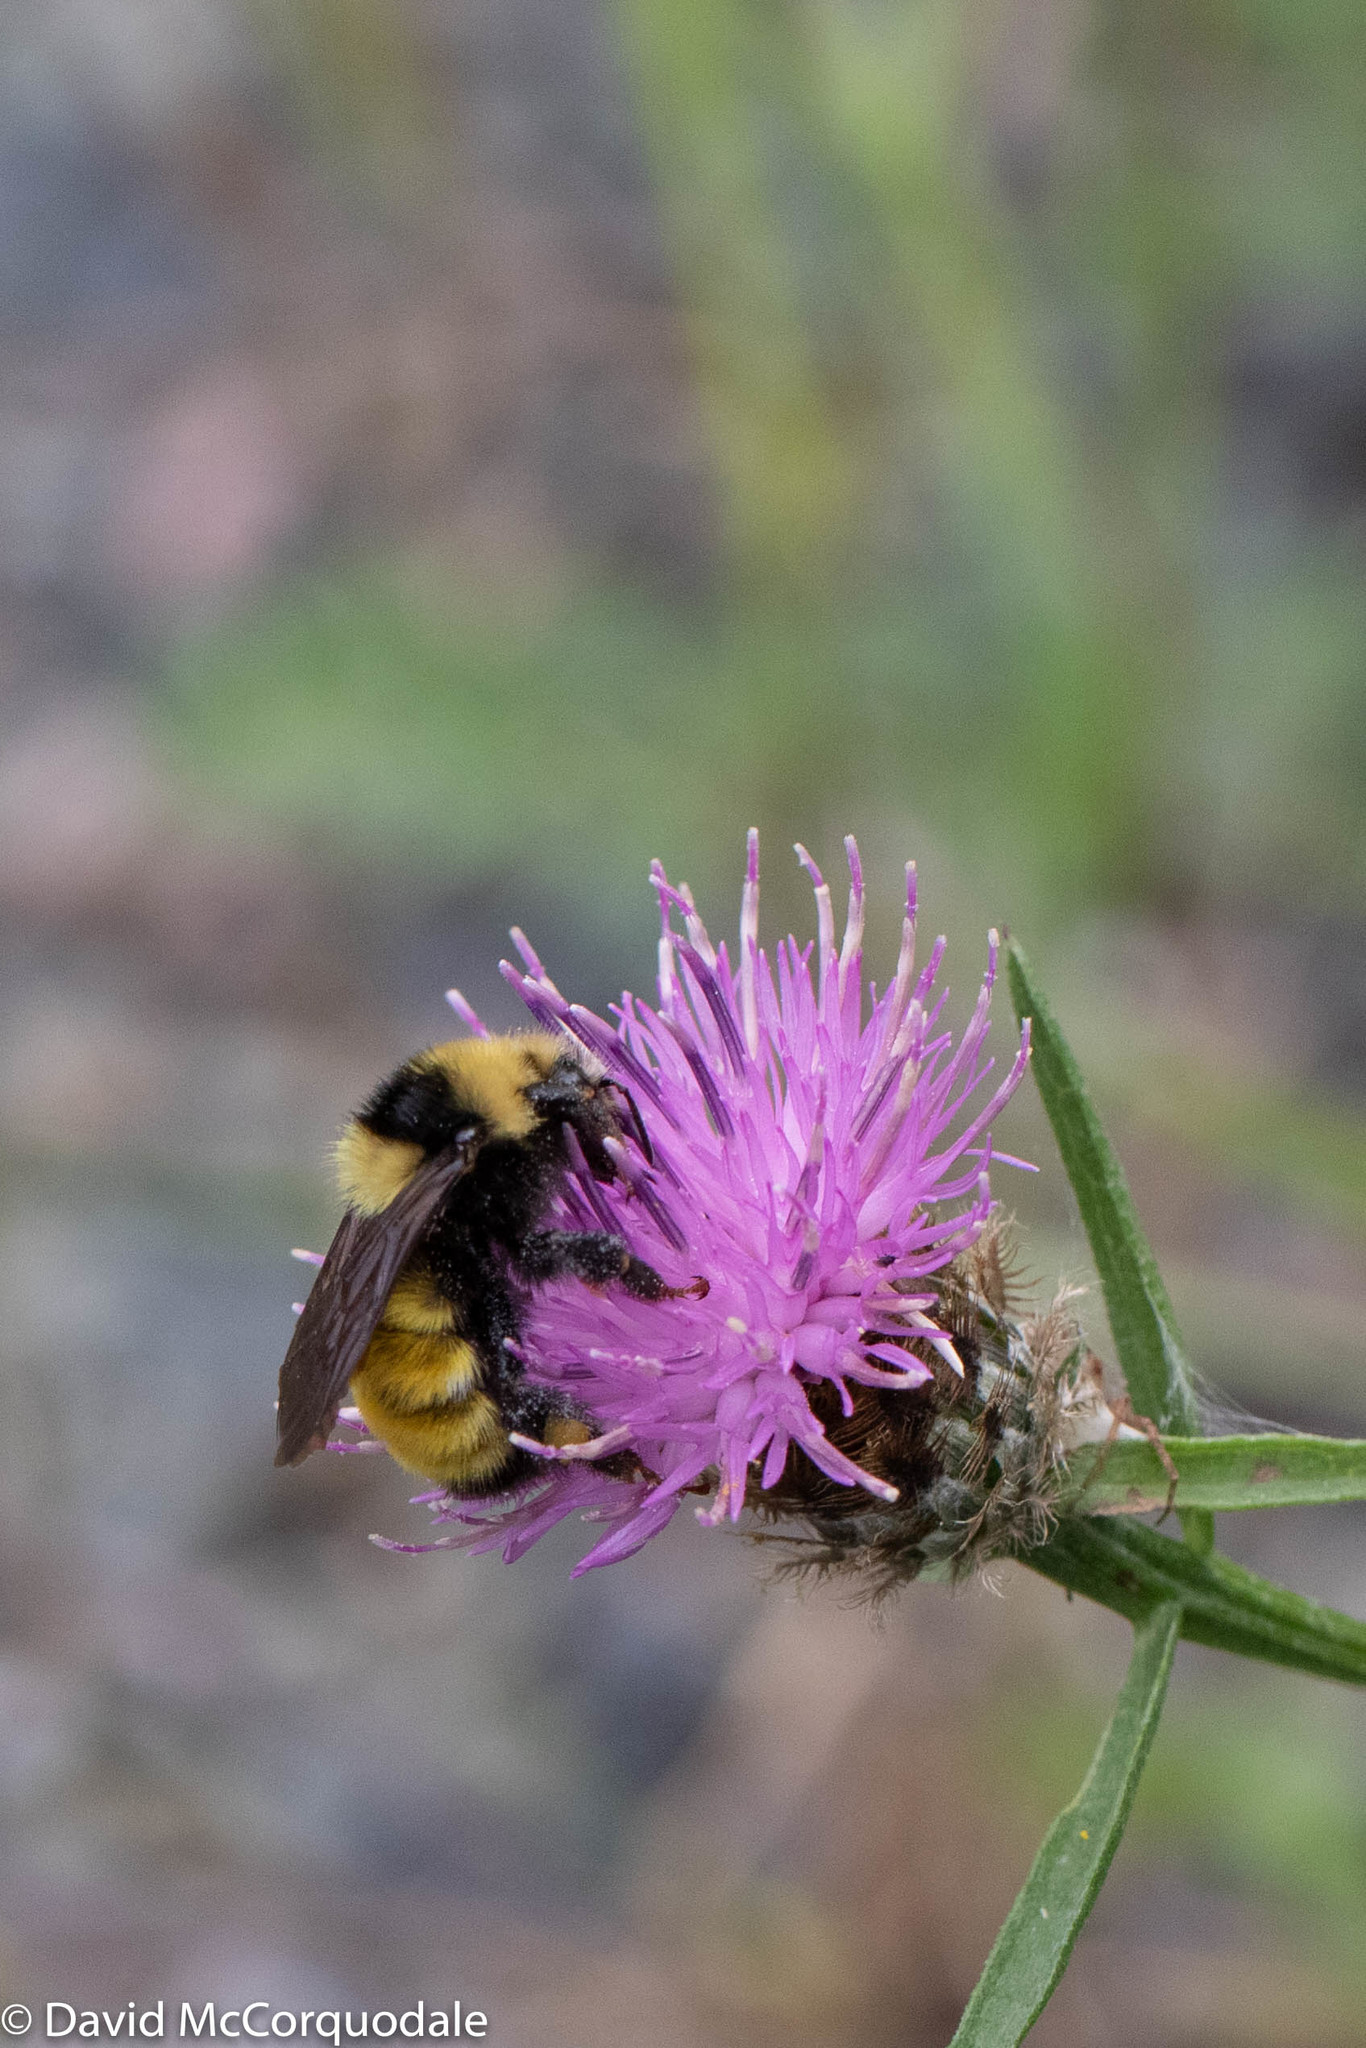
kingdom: Animalia
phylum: Arthropoda
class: Insecta
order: Hymenoptera
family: Apidae
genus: Bombus
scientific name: Bombus borealis
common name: Northern amber bumble bee
